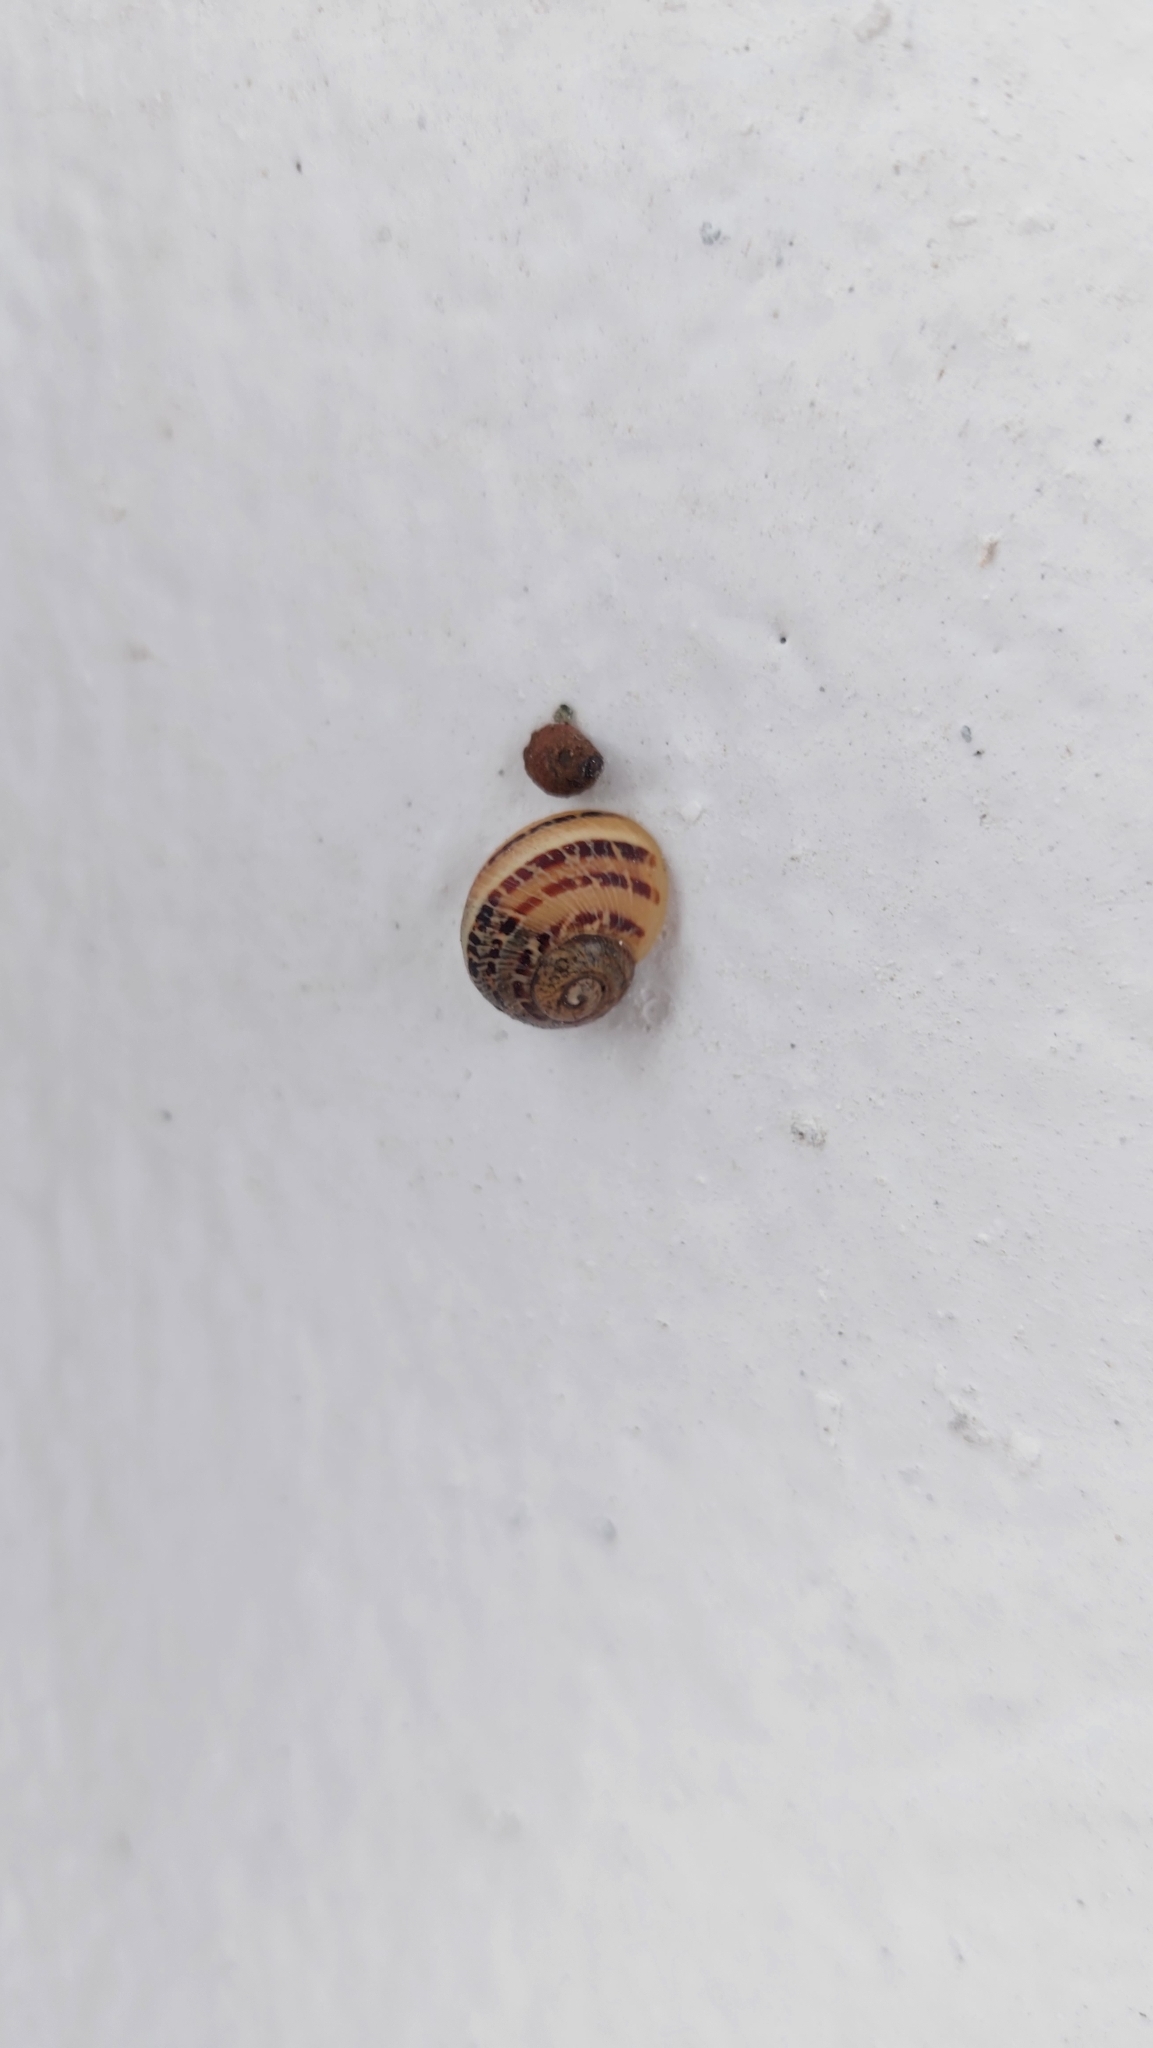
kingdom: Animalia
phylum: Mollusca
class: Gastropoda
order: Stylommatophora
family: Helicidae
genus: Cornu
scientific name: Cornu aspersum
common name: Brown garden snail
